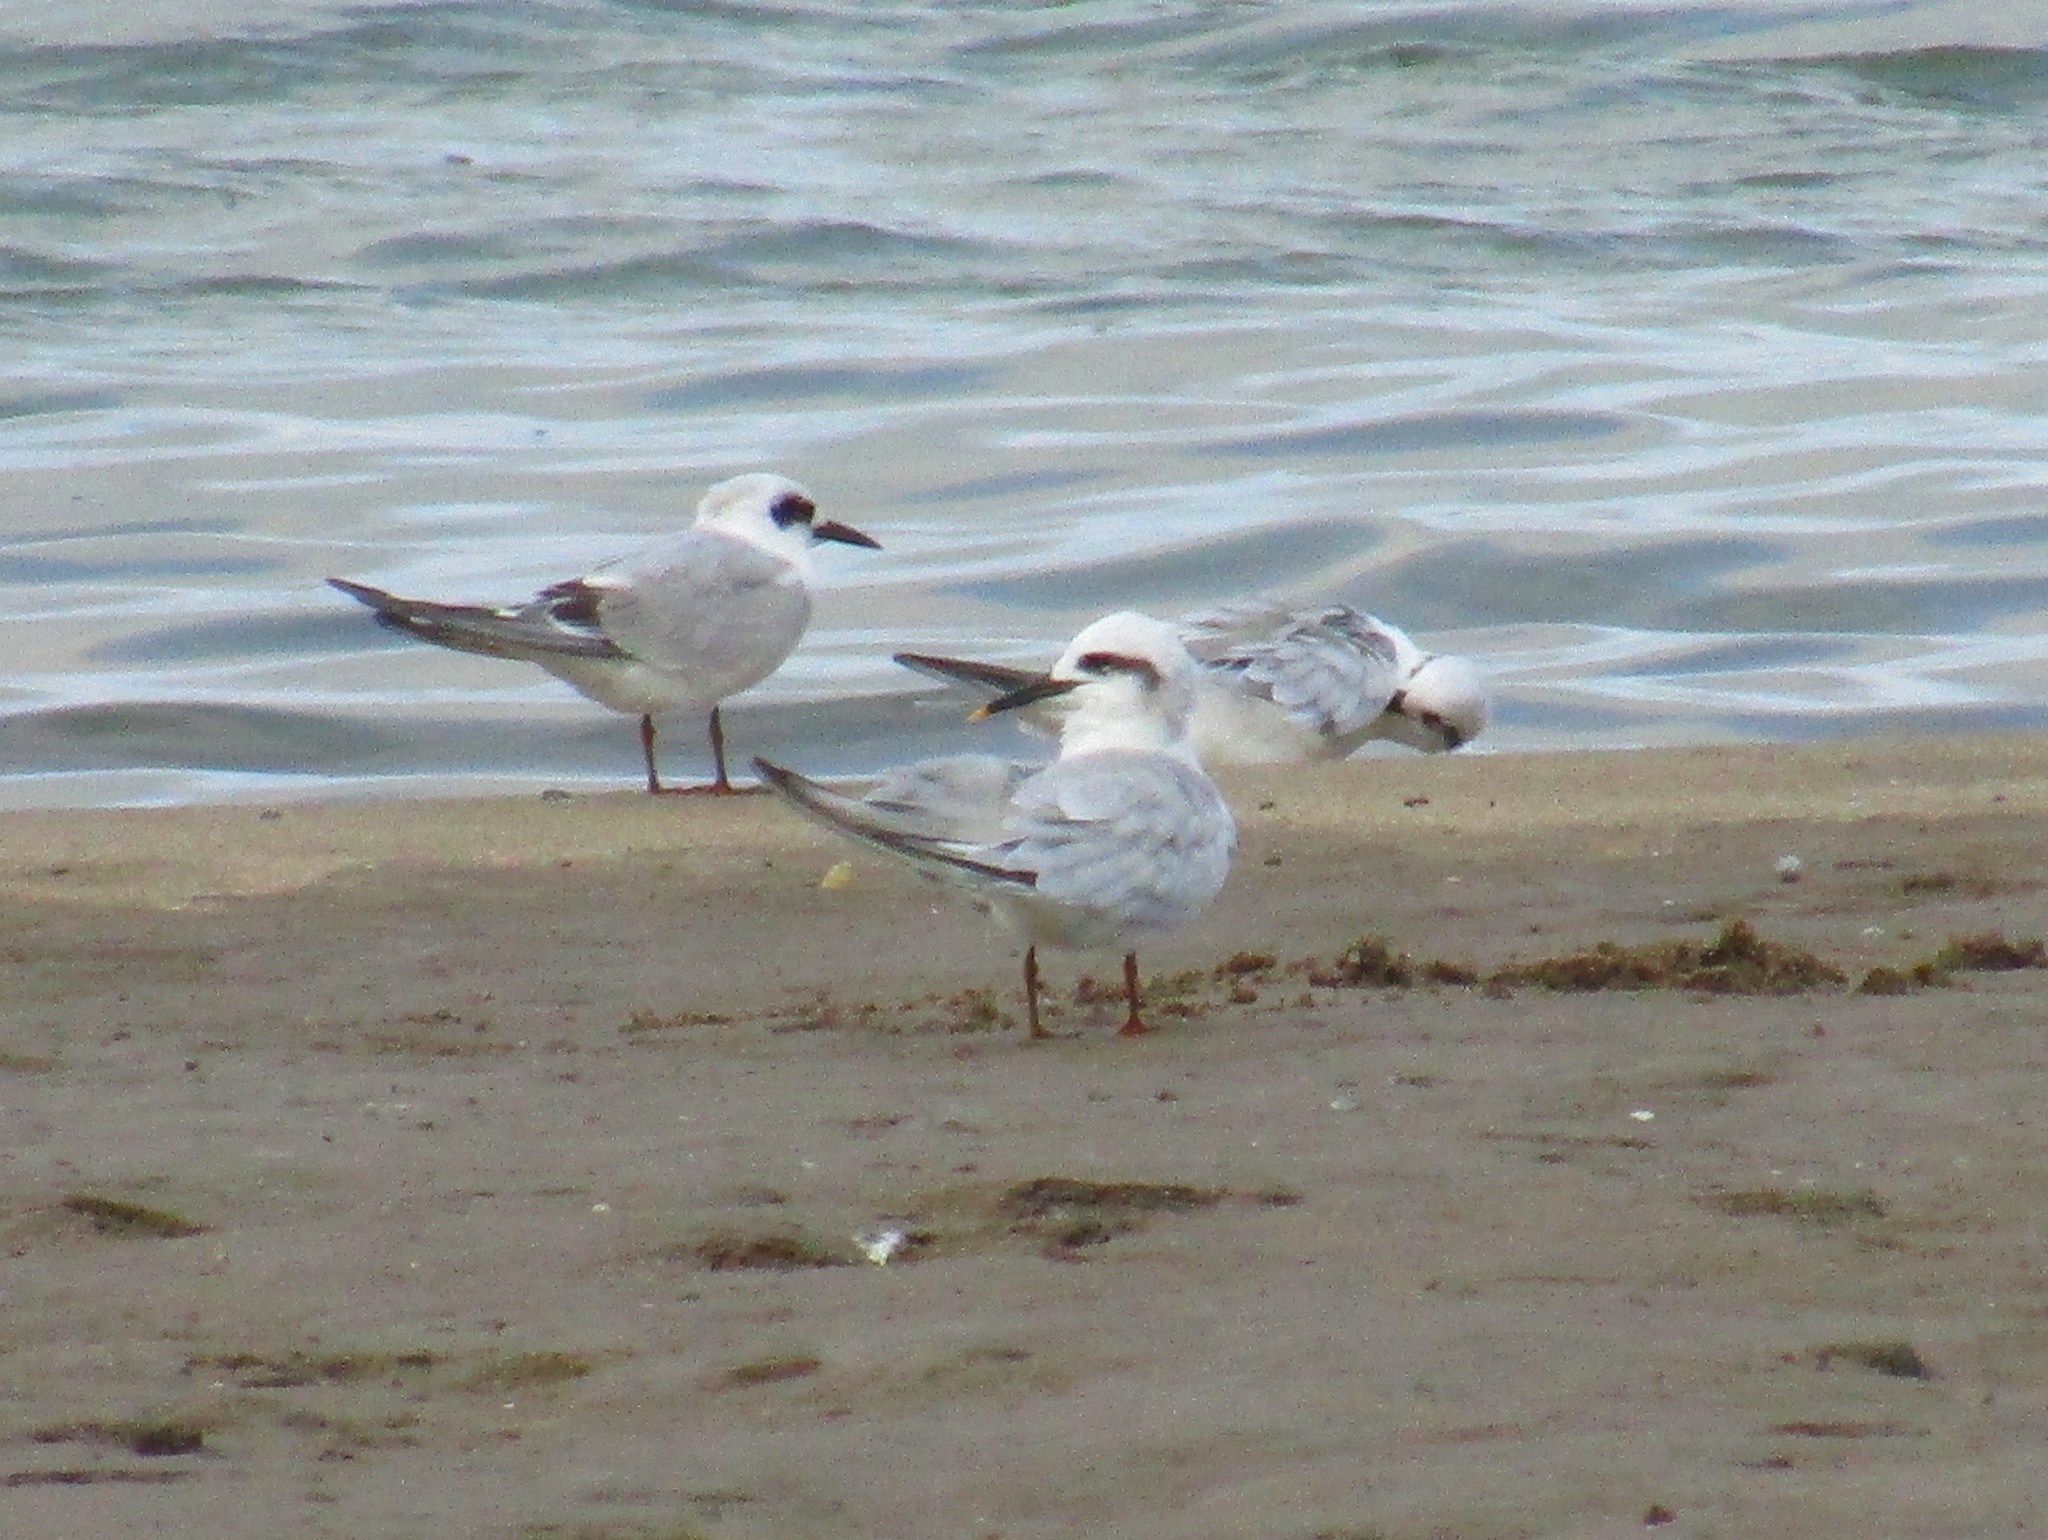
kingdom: Animalia
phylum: Chordata
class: Aves
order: Charadriiformes
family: Laridae
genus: Sterna
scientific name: Sterna trudeaui
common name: Snowy-crowned tern
